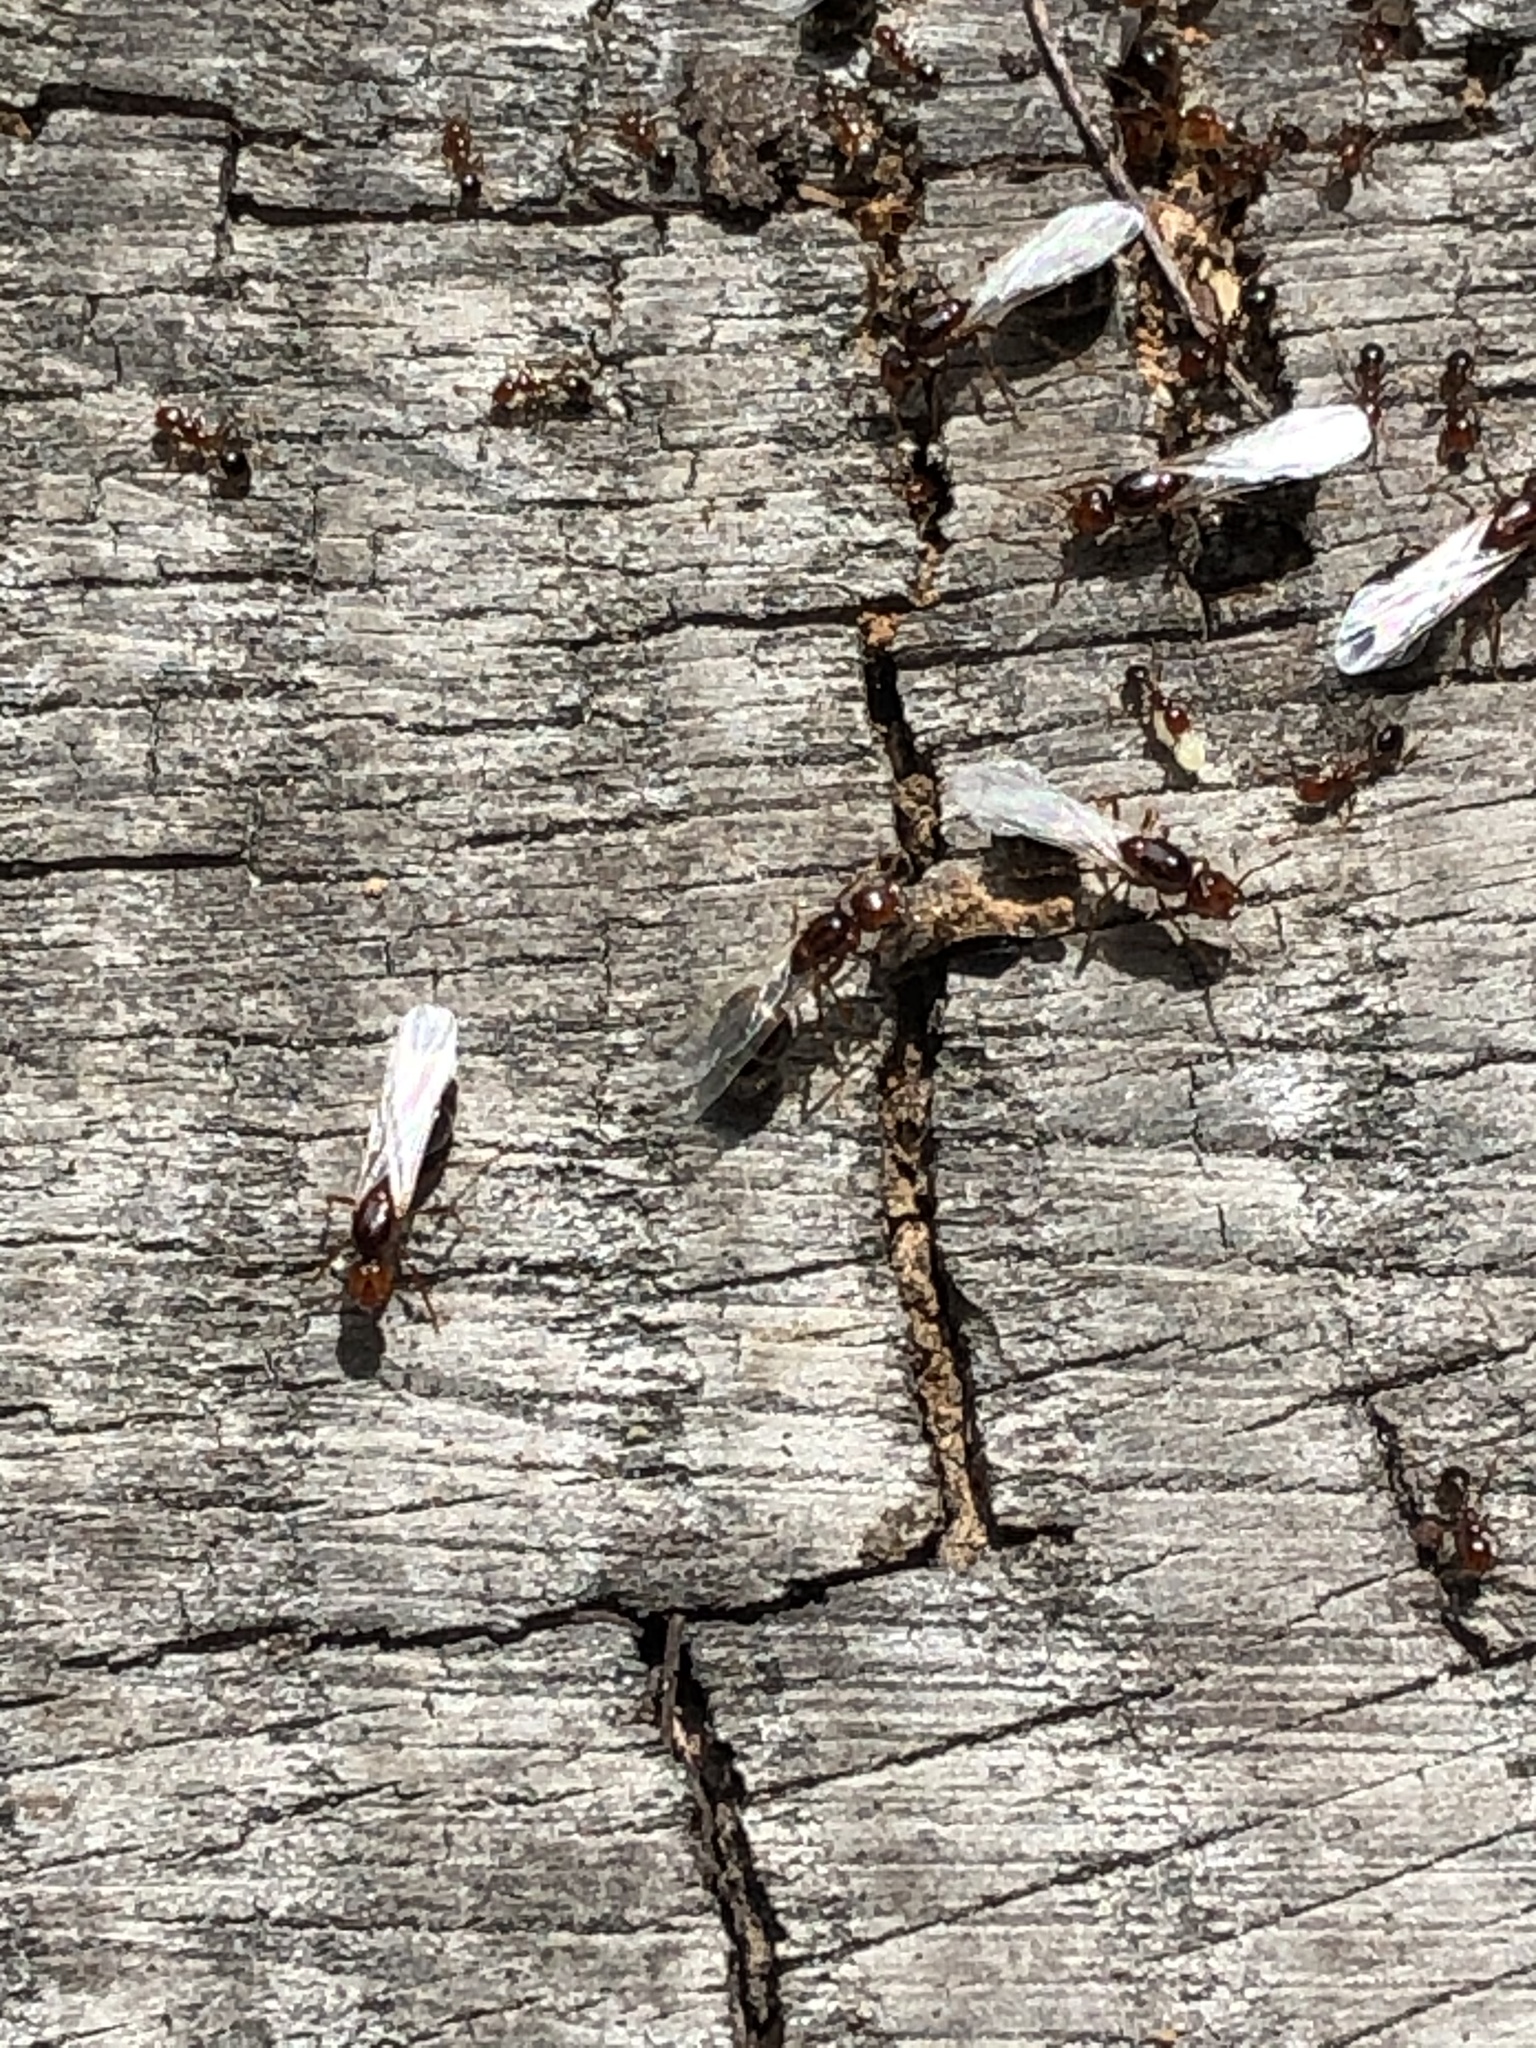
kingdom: Animalia
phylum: Arthropoda
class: Insecta
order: Hymenoptera
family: Formicidae
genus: Solenopsis
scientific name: Solenopsis invicta
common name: Red imported fire ant
